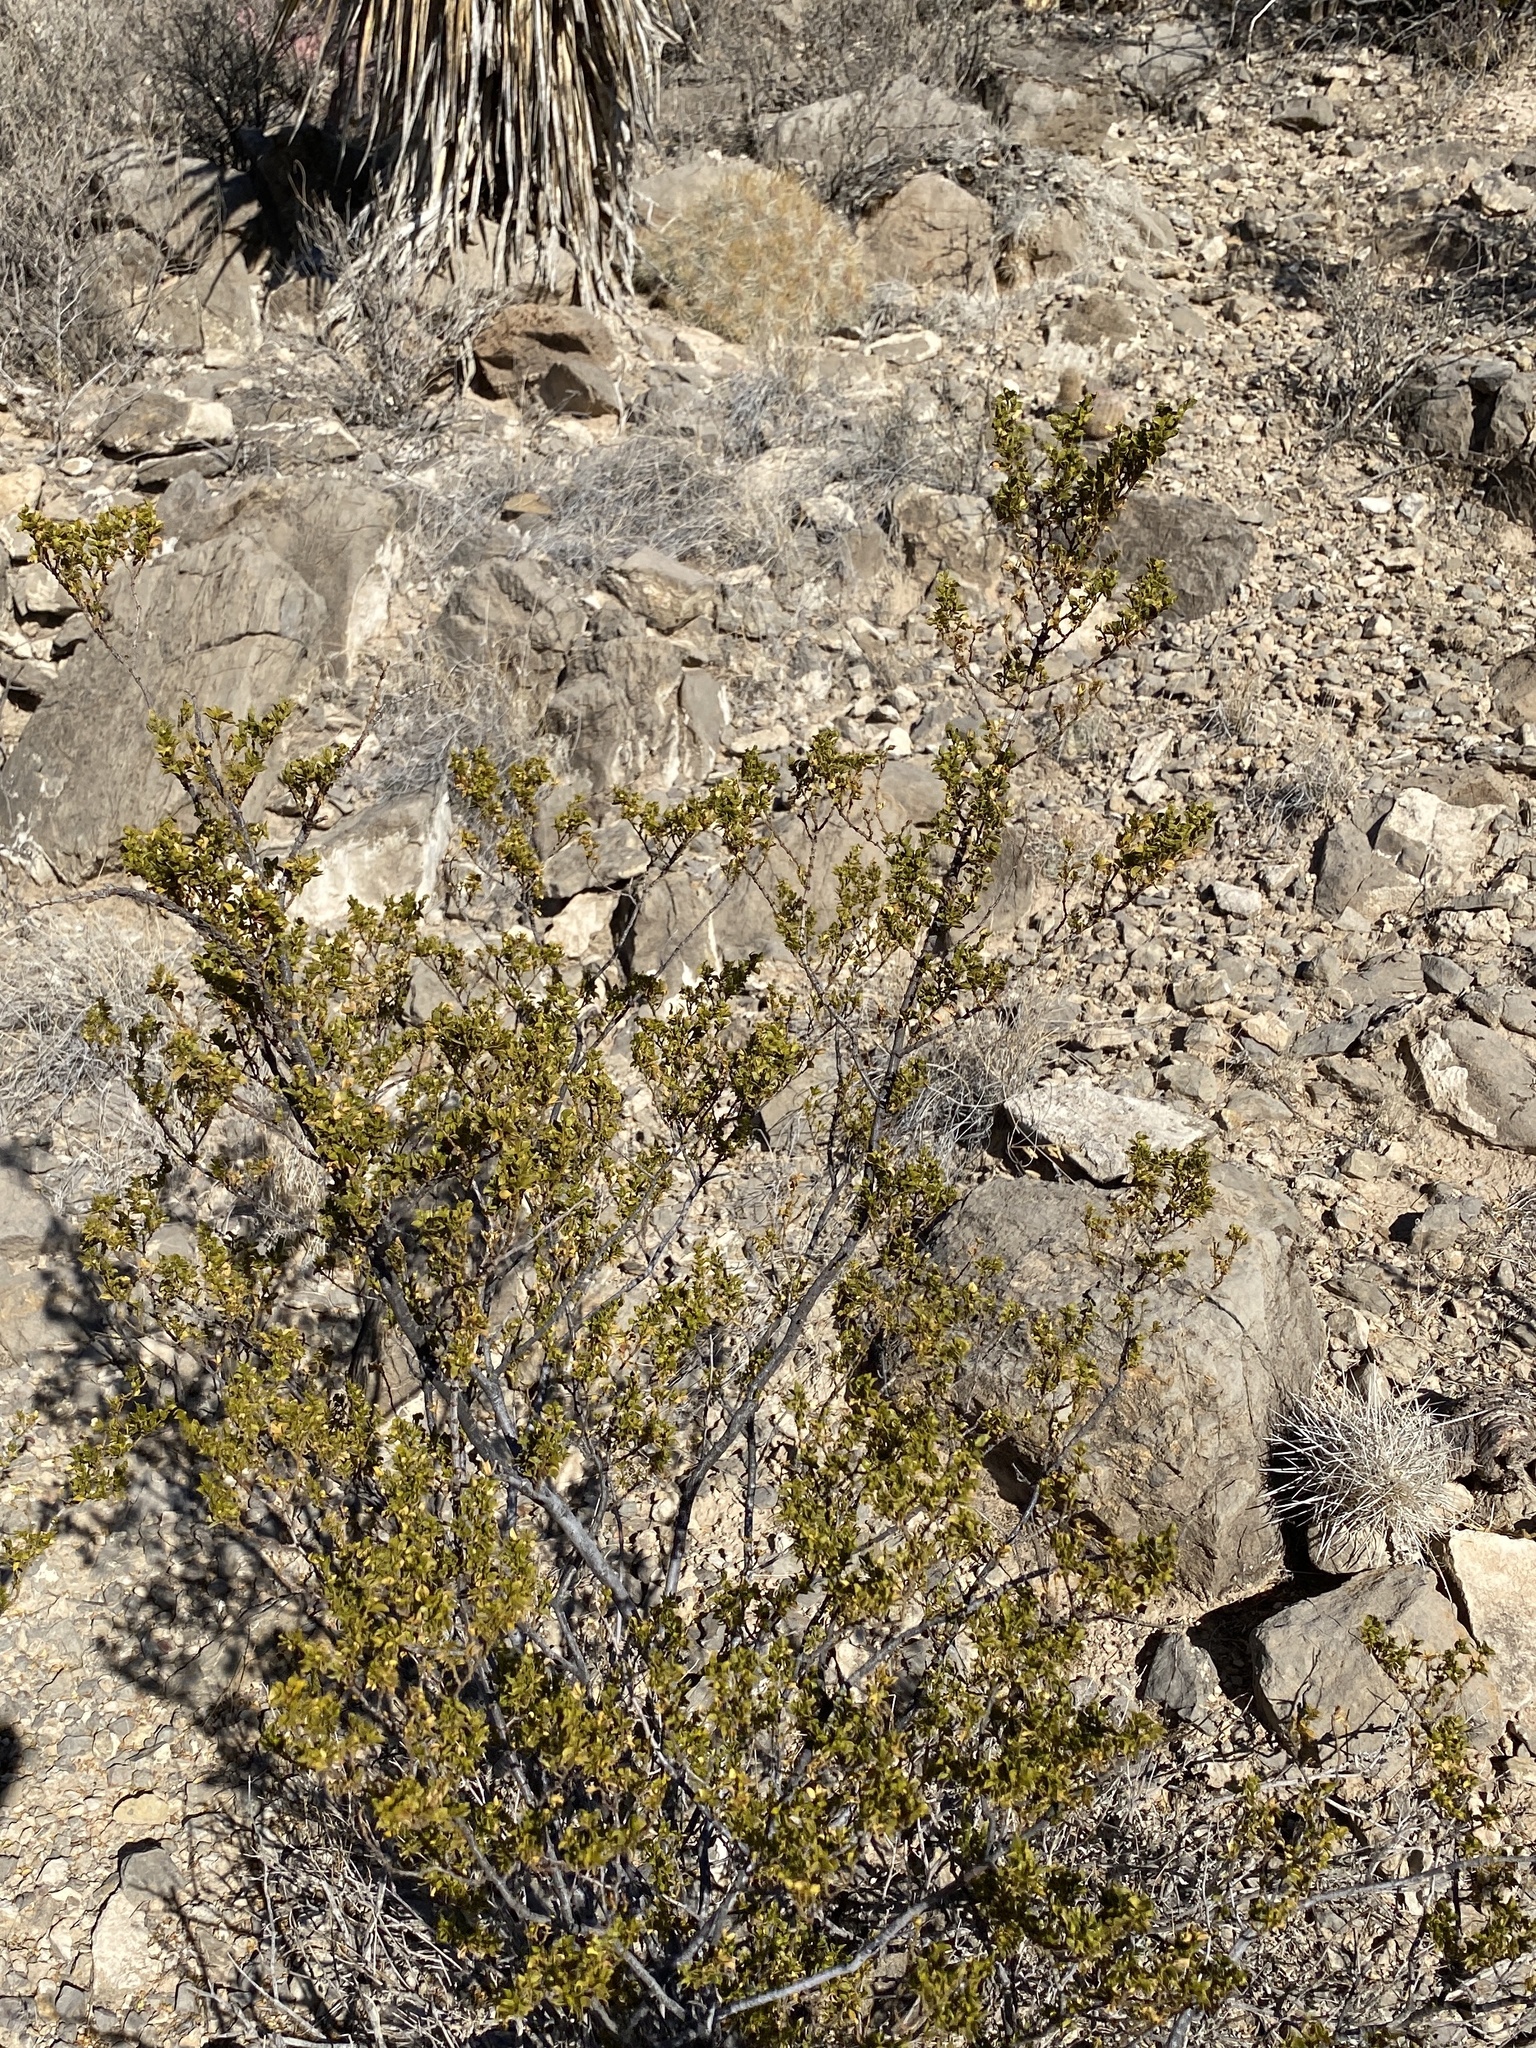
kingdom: Plantae
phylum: Tracheophyta
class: Magnoliopsida
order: Zygophyllales
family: Zygophyllaceae
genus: Larrea
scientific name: Larrea tridentata
